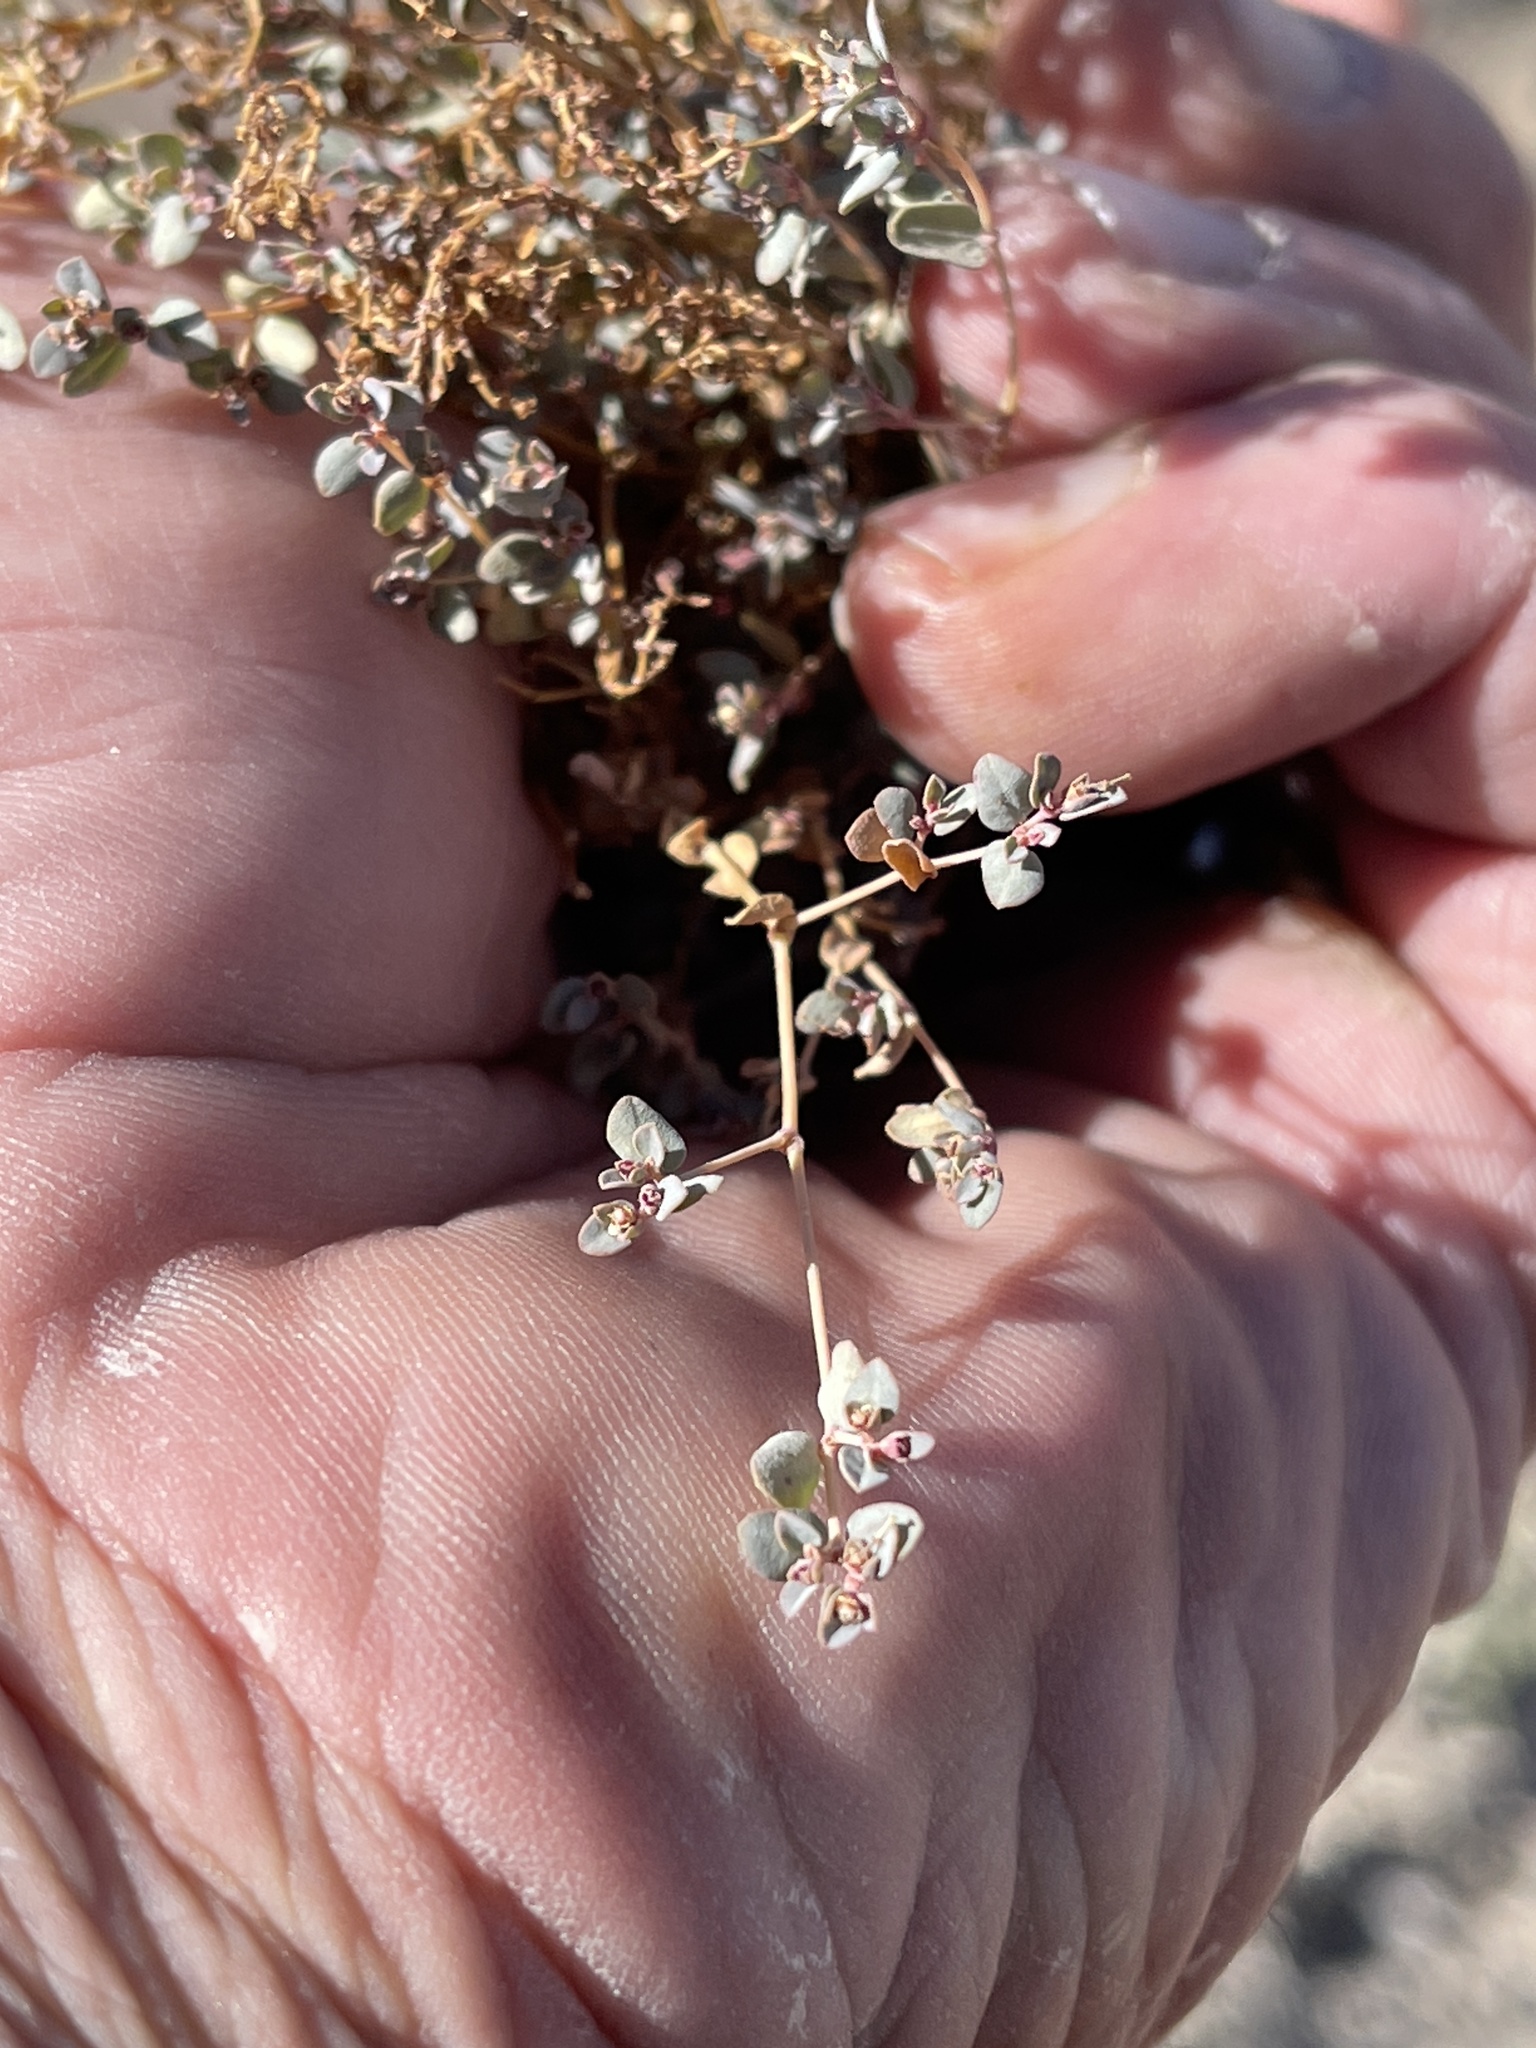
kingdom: Plantae
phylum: Tracheophyta
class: Magnoliopsida
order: Malpighiales
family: Euphorbiaceae
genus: Euphorbia
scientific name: Euphorbia polycarpa
